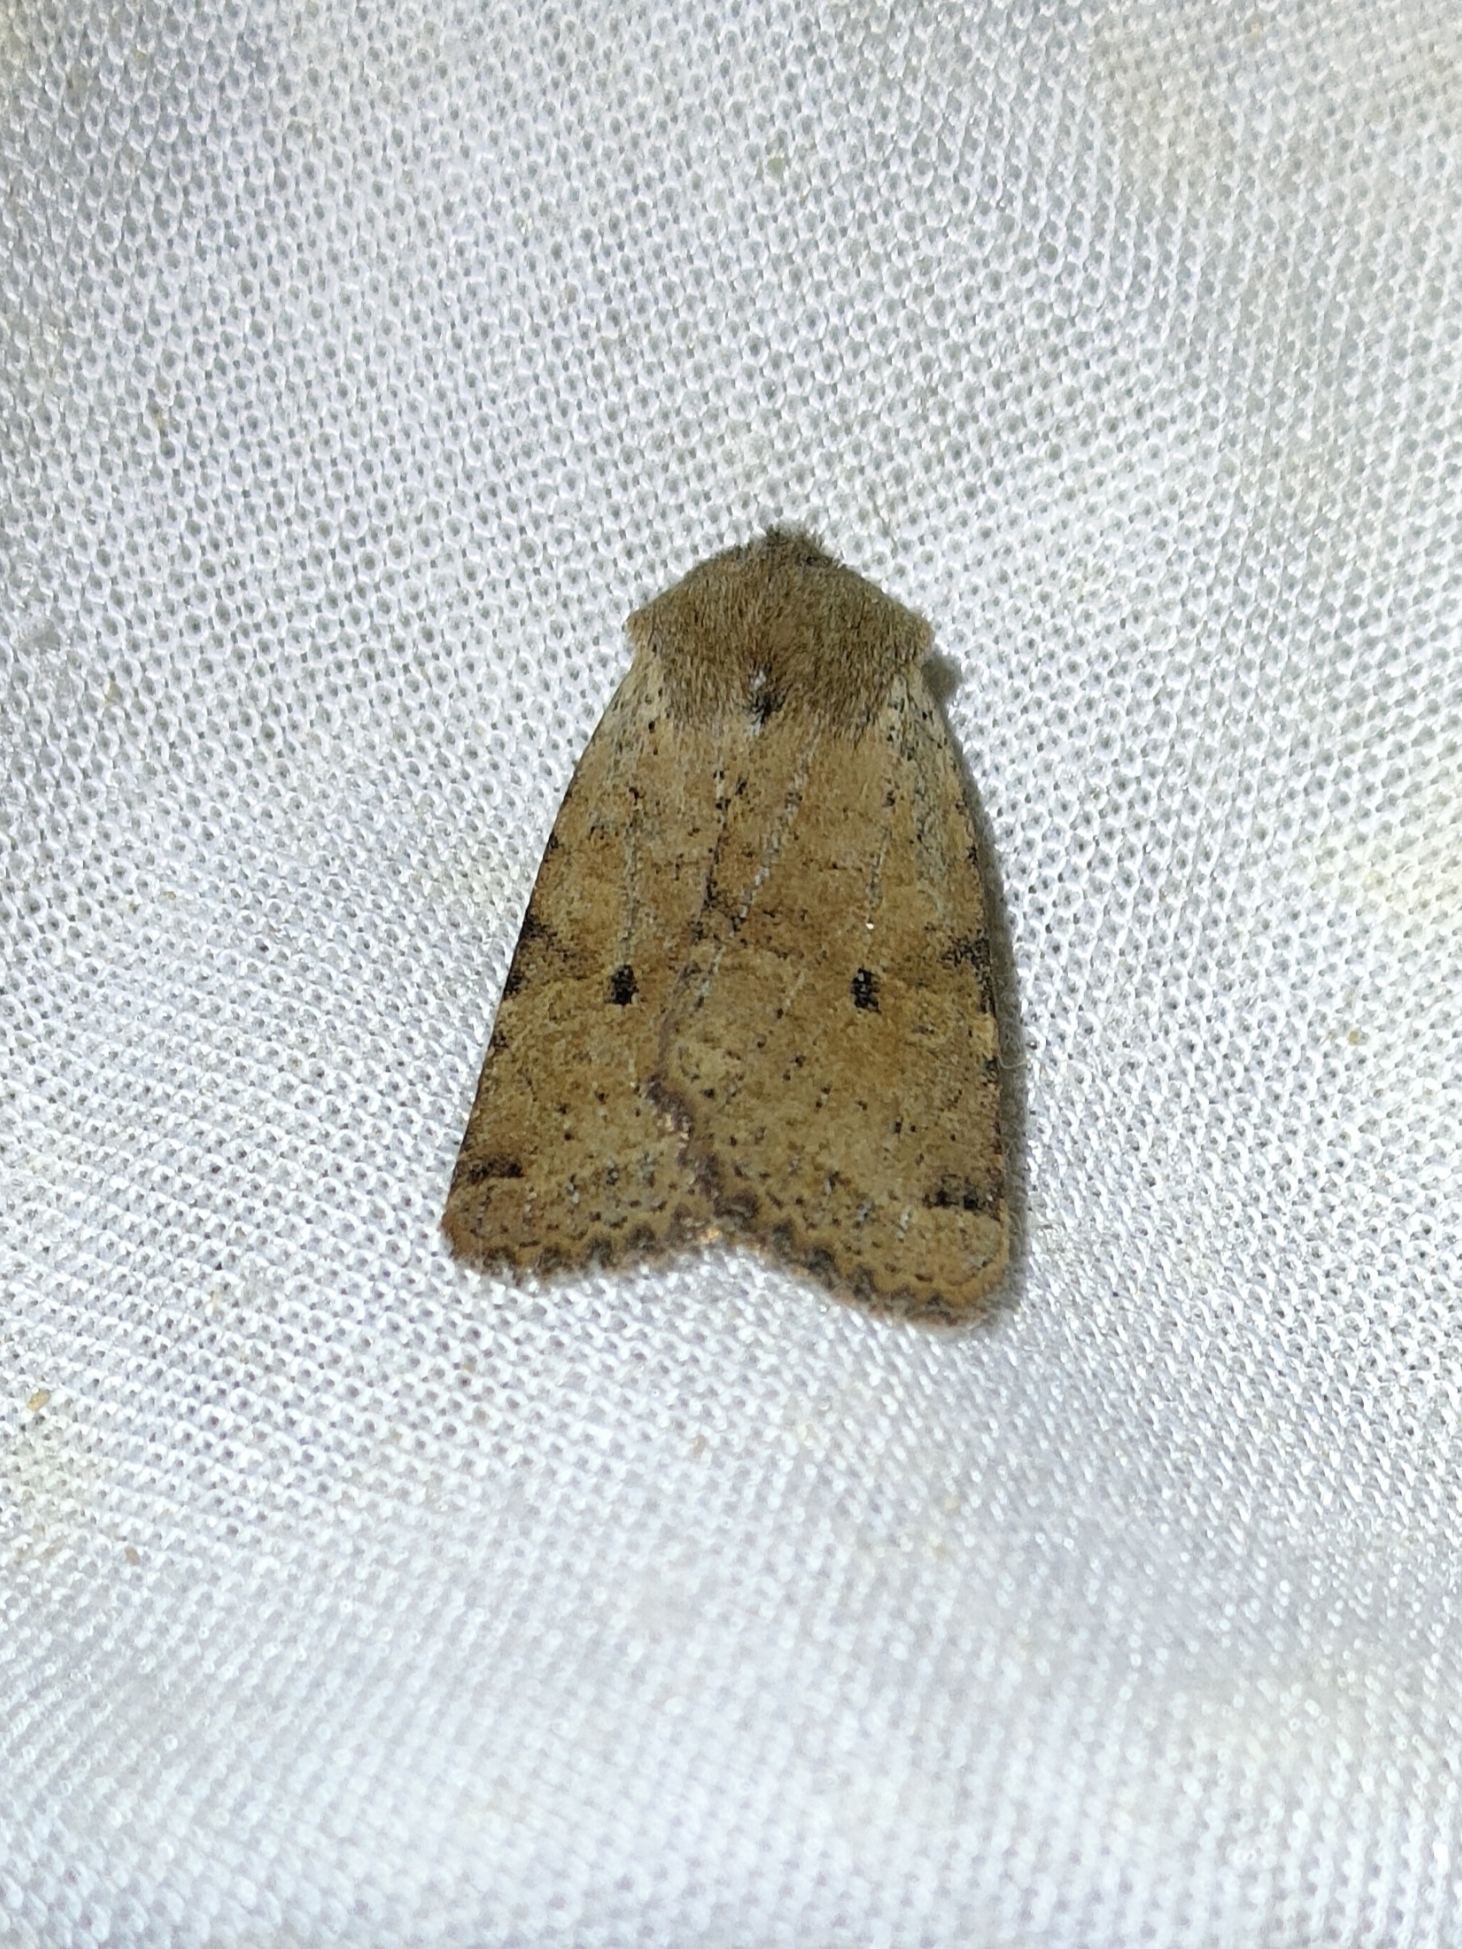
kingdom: Animalia
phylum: Arthropoda
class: Insecta
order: Lepidoptera
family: Noctuidae
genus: Agrochola
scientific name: Agrochola ruticilla
